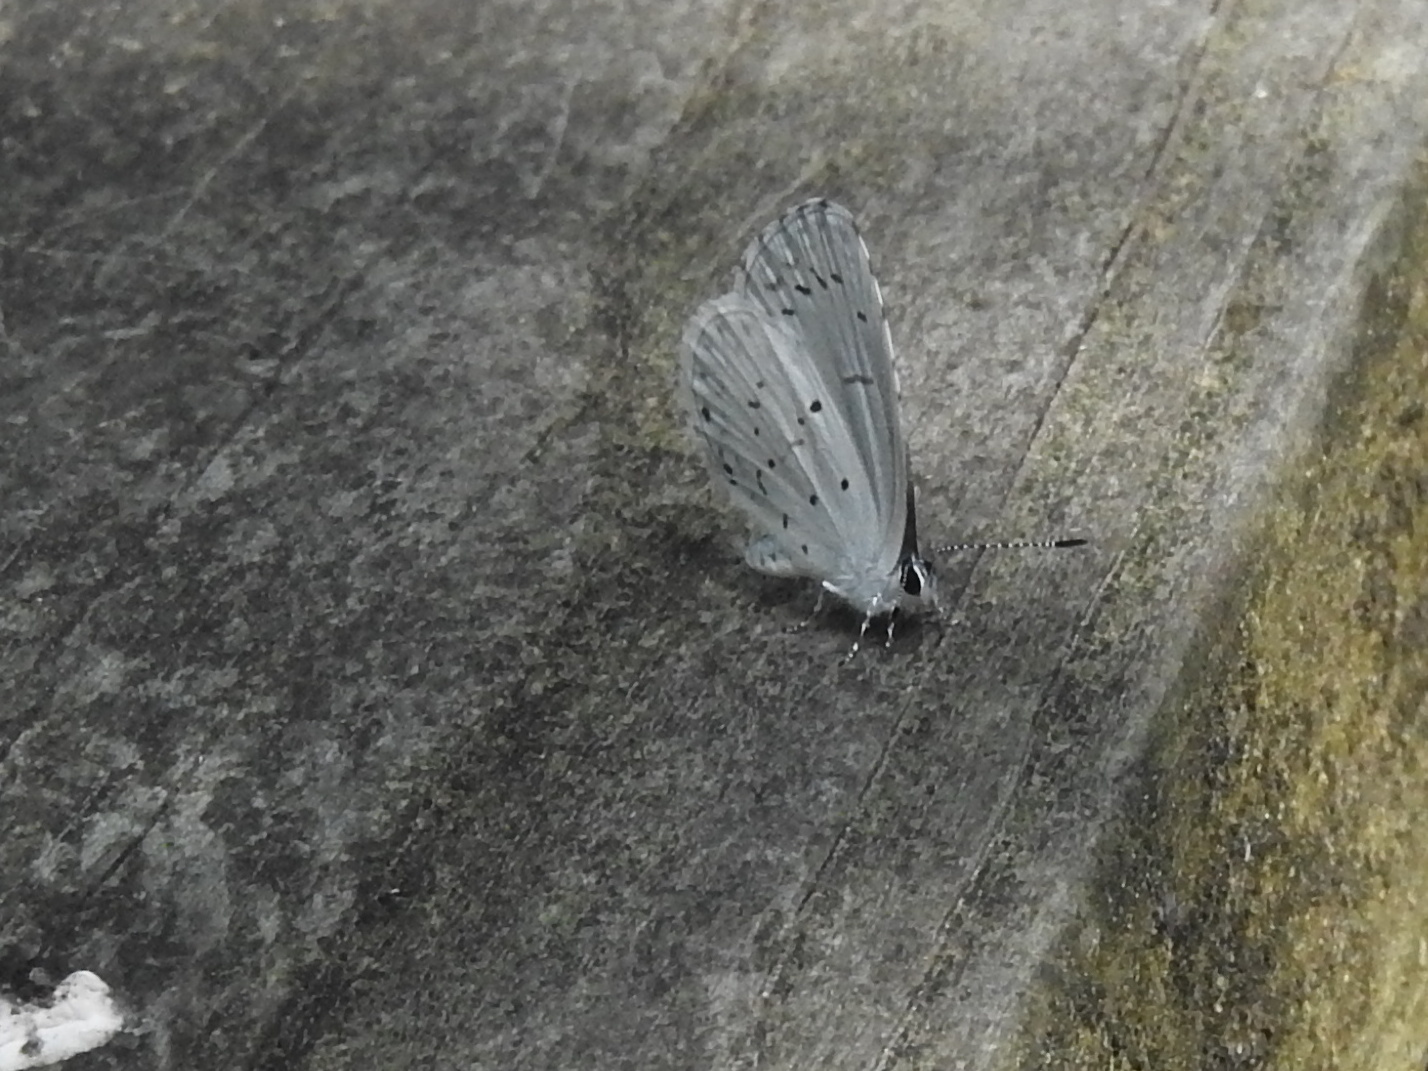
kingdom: Animalia
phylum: Arthropoda
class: Insecta
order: Lepidoptera
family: Lycaenidae
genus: Cyaniris
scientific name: Cyaniris neglecta
